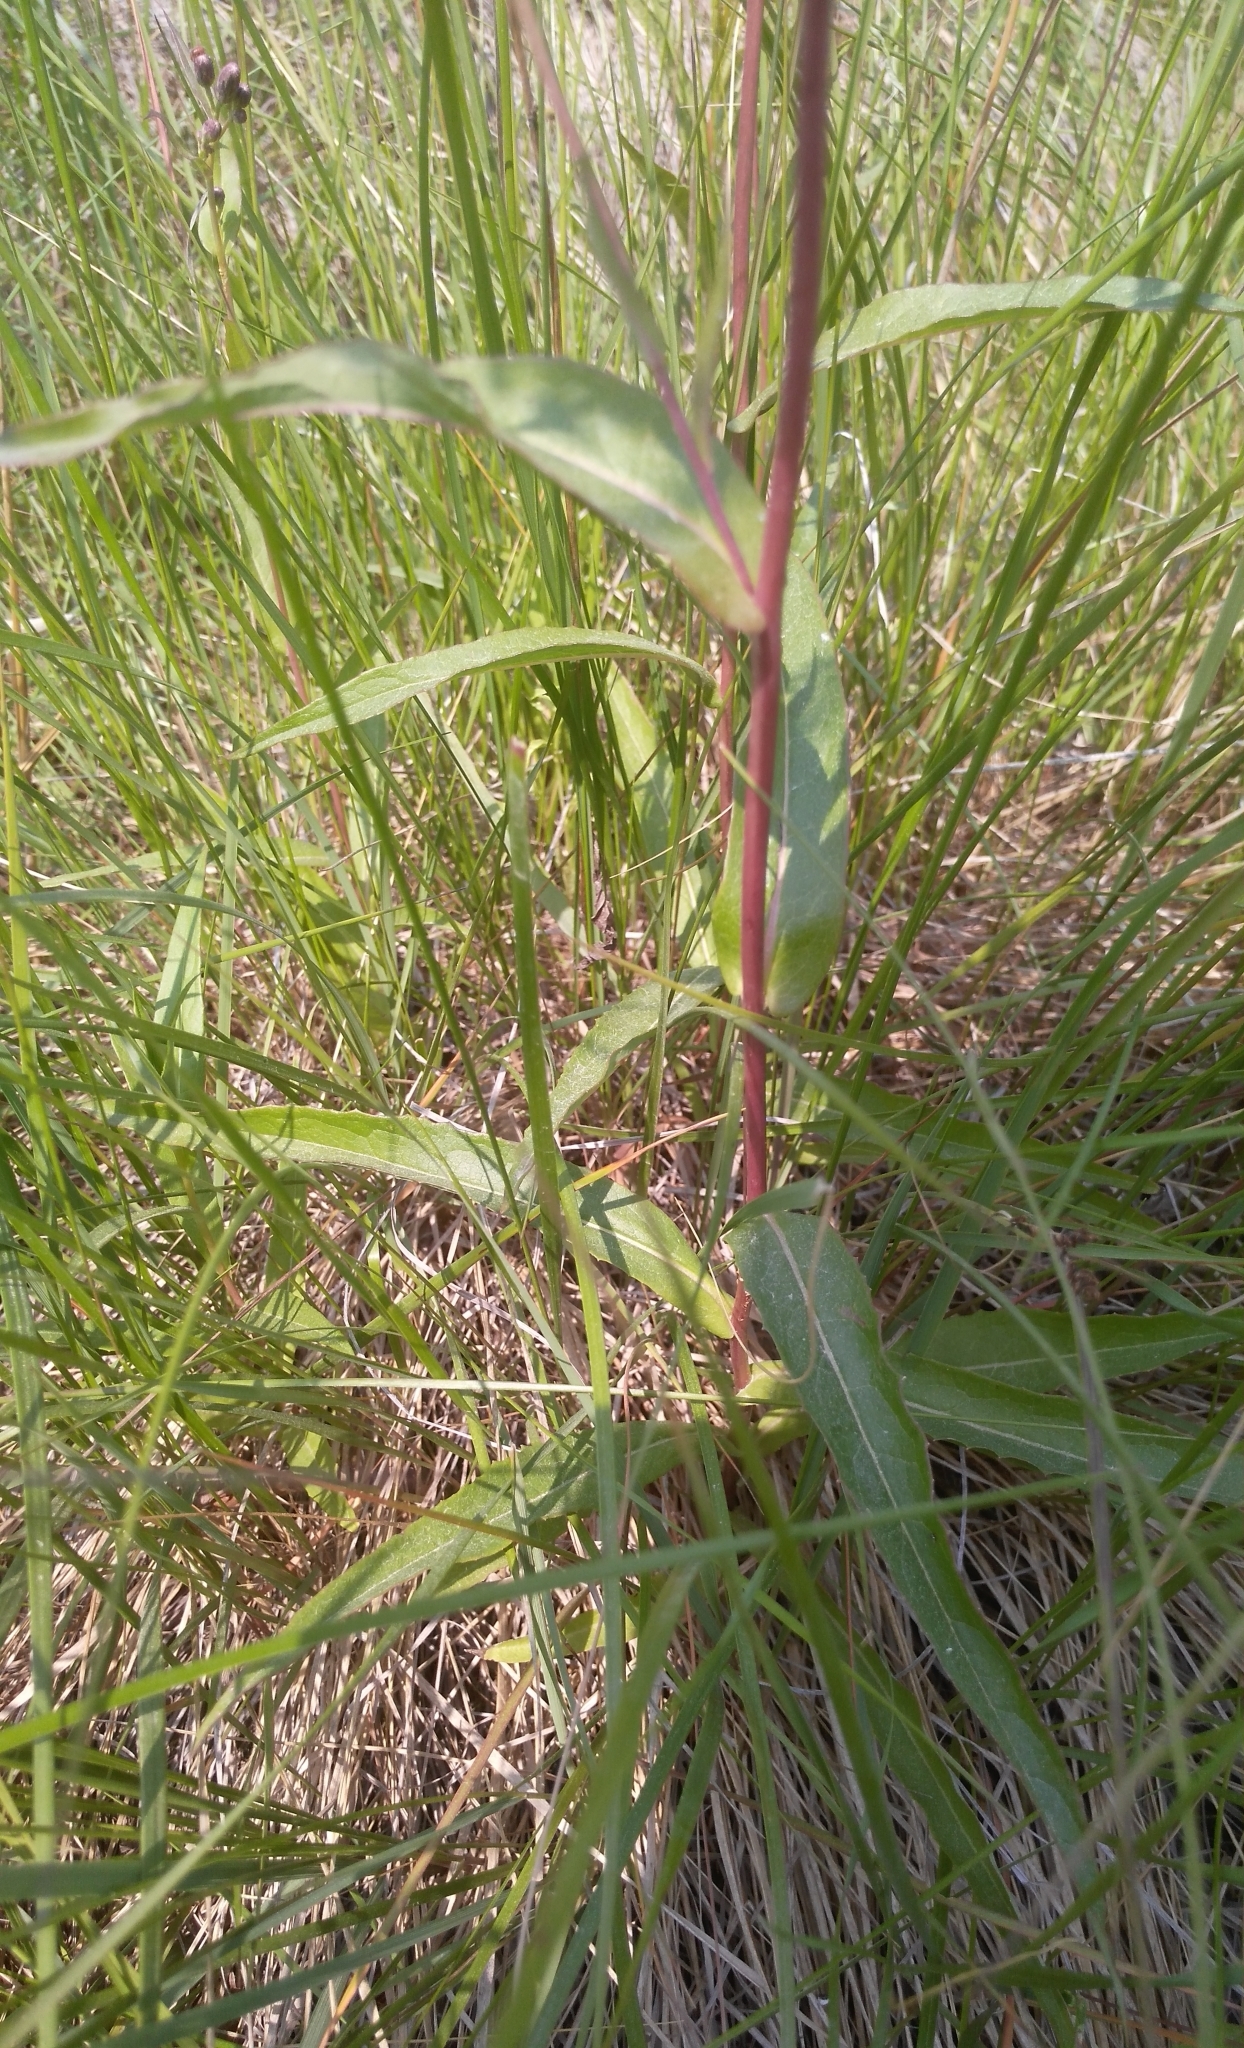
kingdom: Plantae
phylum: Tracheophyta
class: Magnoliopsida
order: Asterales
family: Asteraceae
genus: Lactuca
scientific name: Lactuca sibirica
